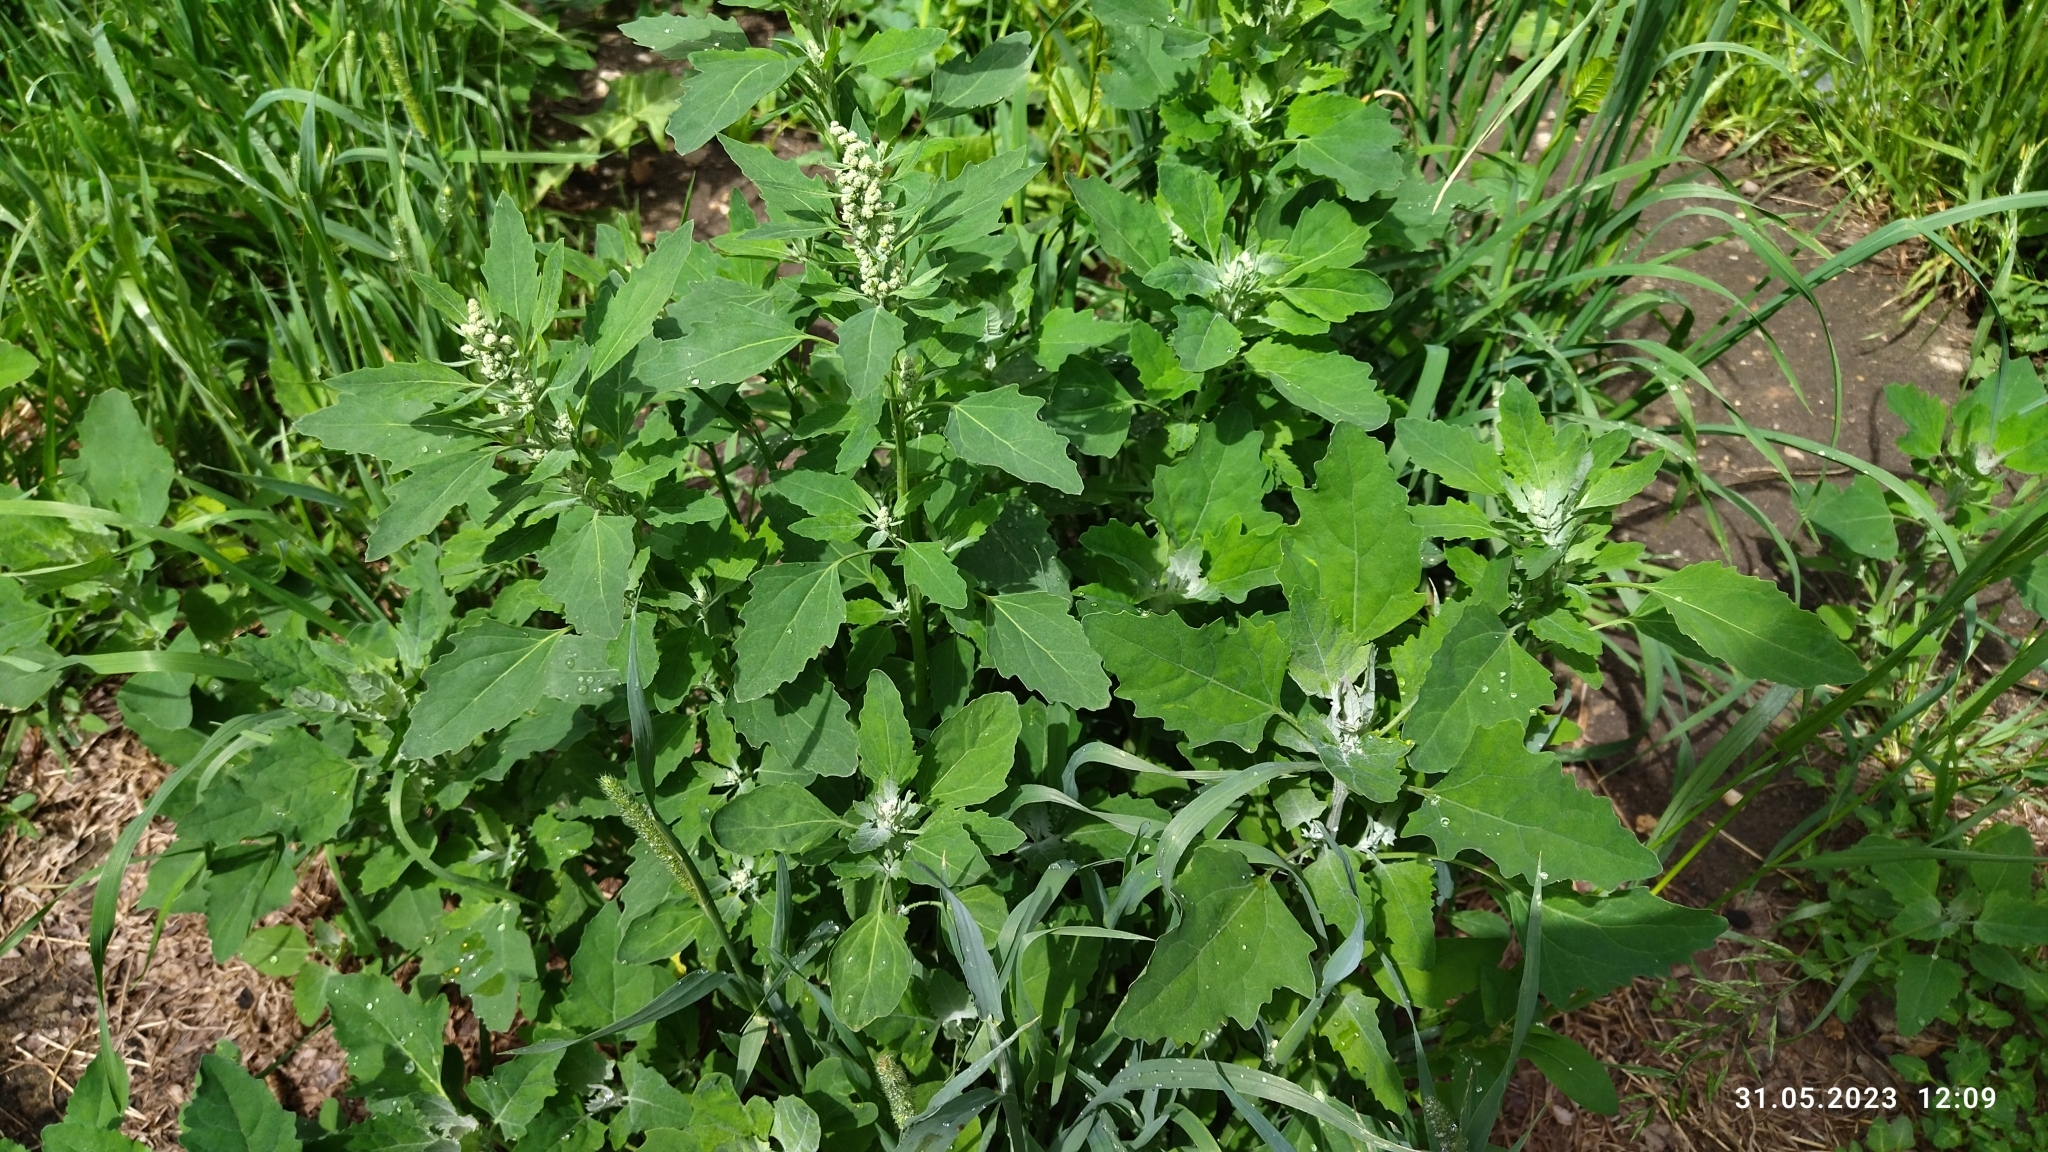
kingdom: Plantae
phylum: Tracheophyta
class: Magnoliopsida
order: Caryophyllales
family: Amaranthaceae
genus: Chenopodium
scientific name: Chenopodium album
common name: Fat-hen
